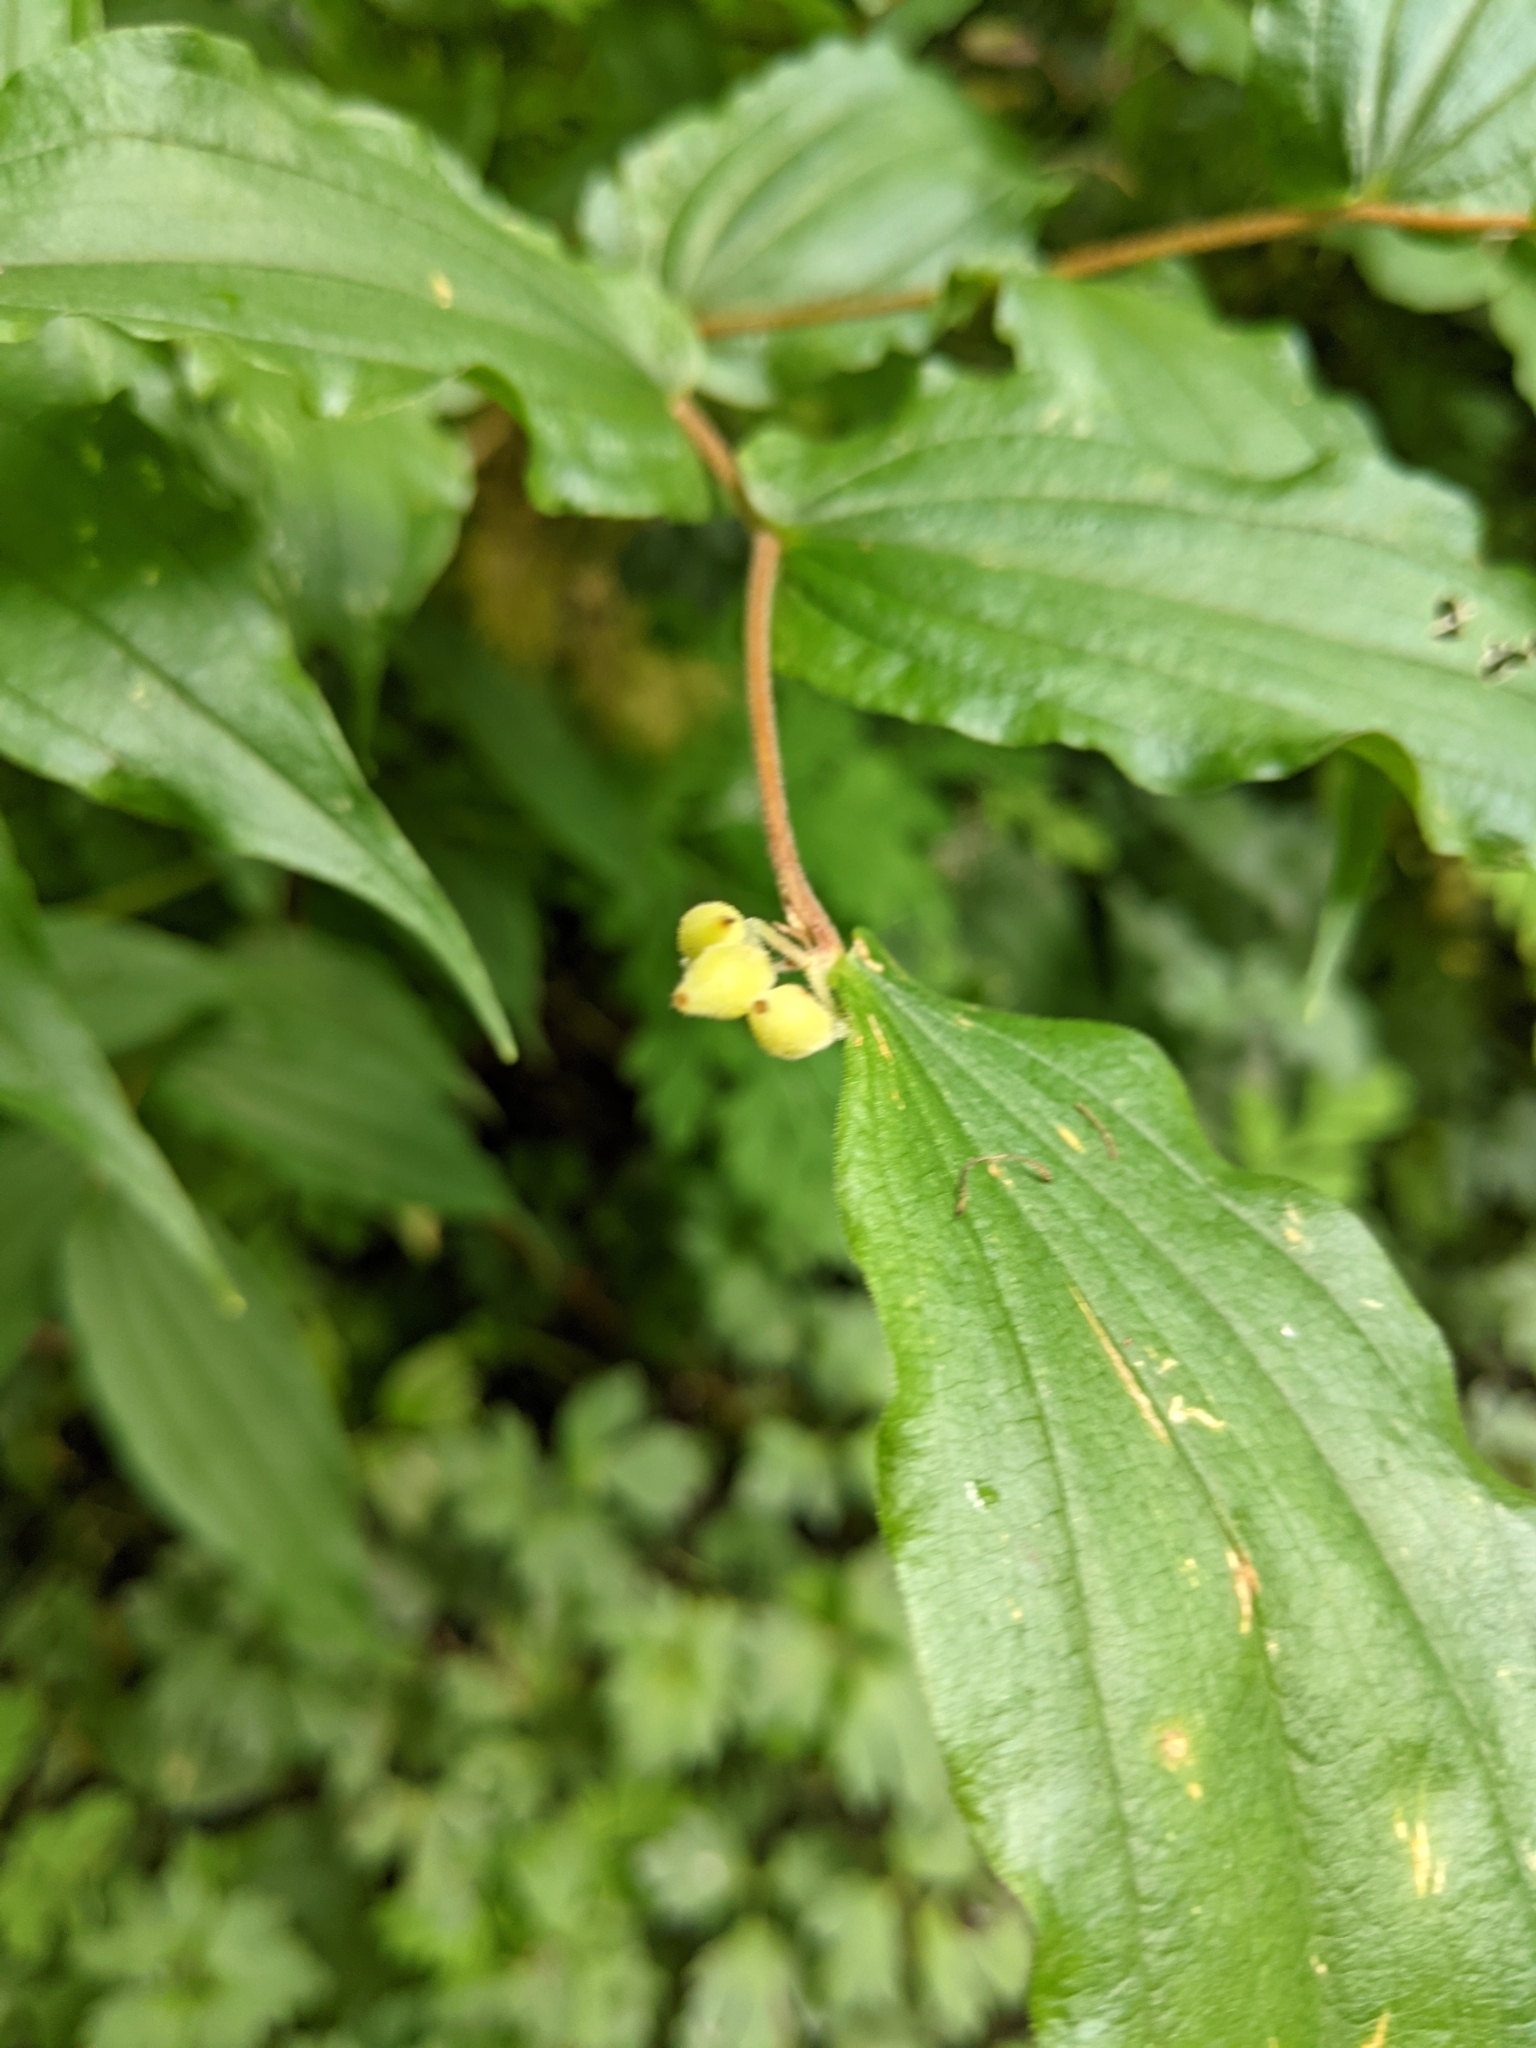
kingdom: Plantae
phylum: Tracheophyta
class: Liliopsida
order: Liliales
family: Liliaceae
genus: Prosartes
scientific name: Prosartes hookeri
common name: Fairy-bells
